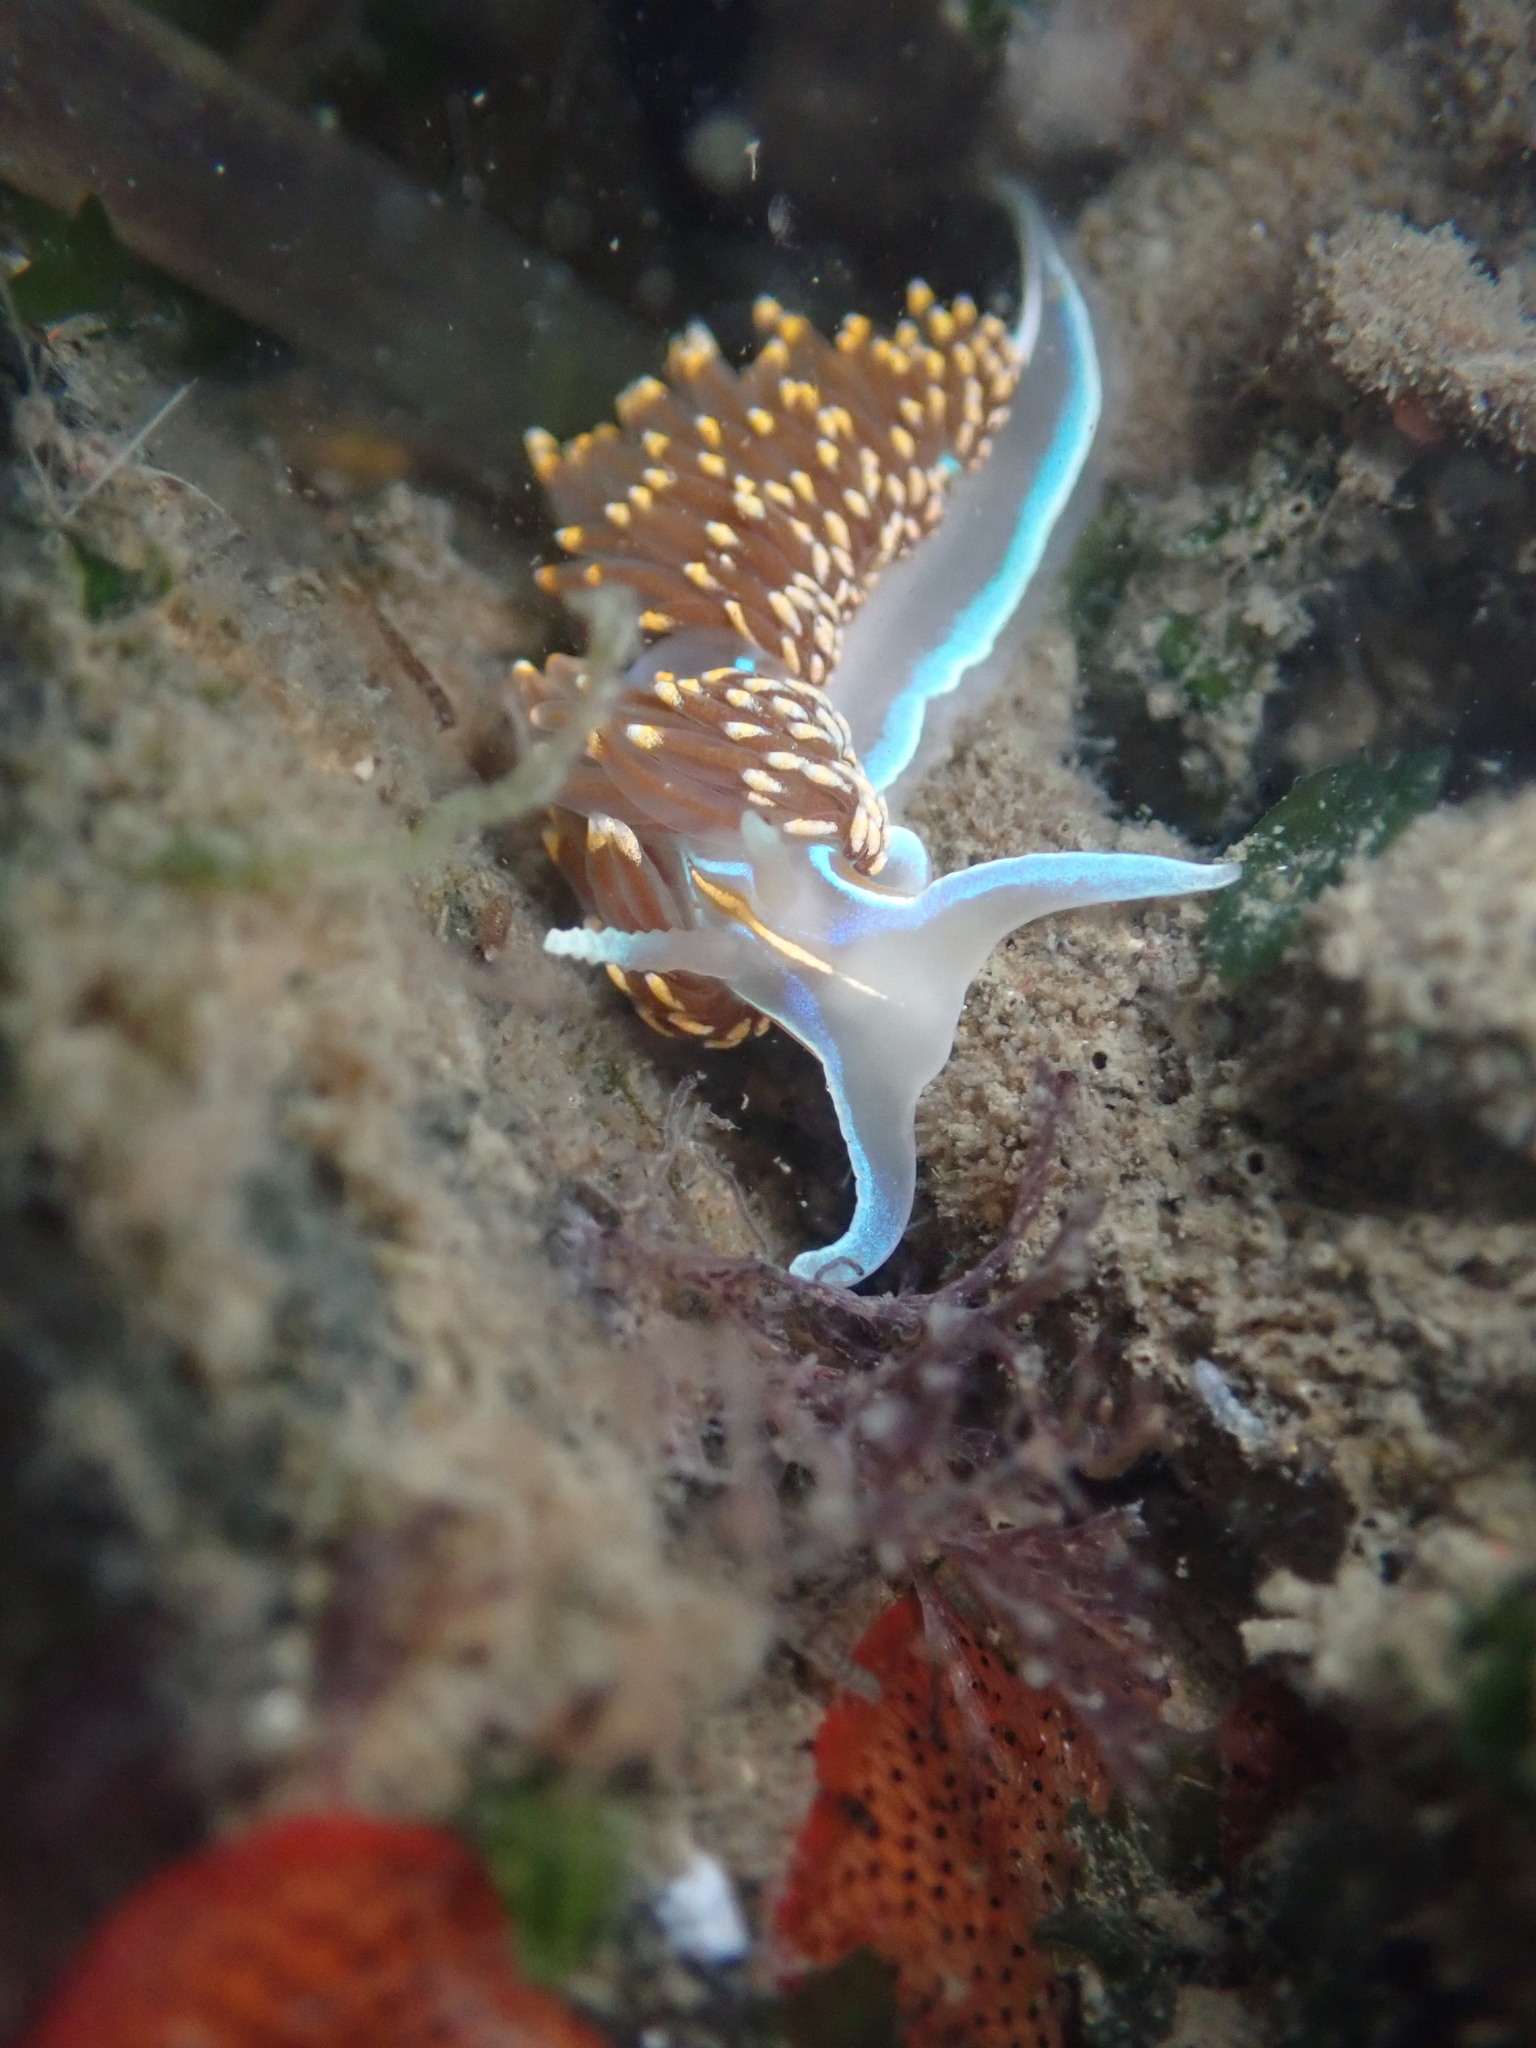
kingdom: Animalia
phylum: Mollusca
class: Gastropoda
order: Nudibranchia
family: Myrrhinidae
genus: Hermissenda
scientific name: Hermissenda opalescens
